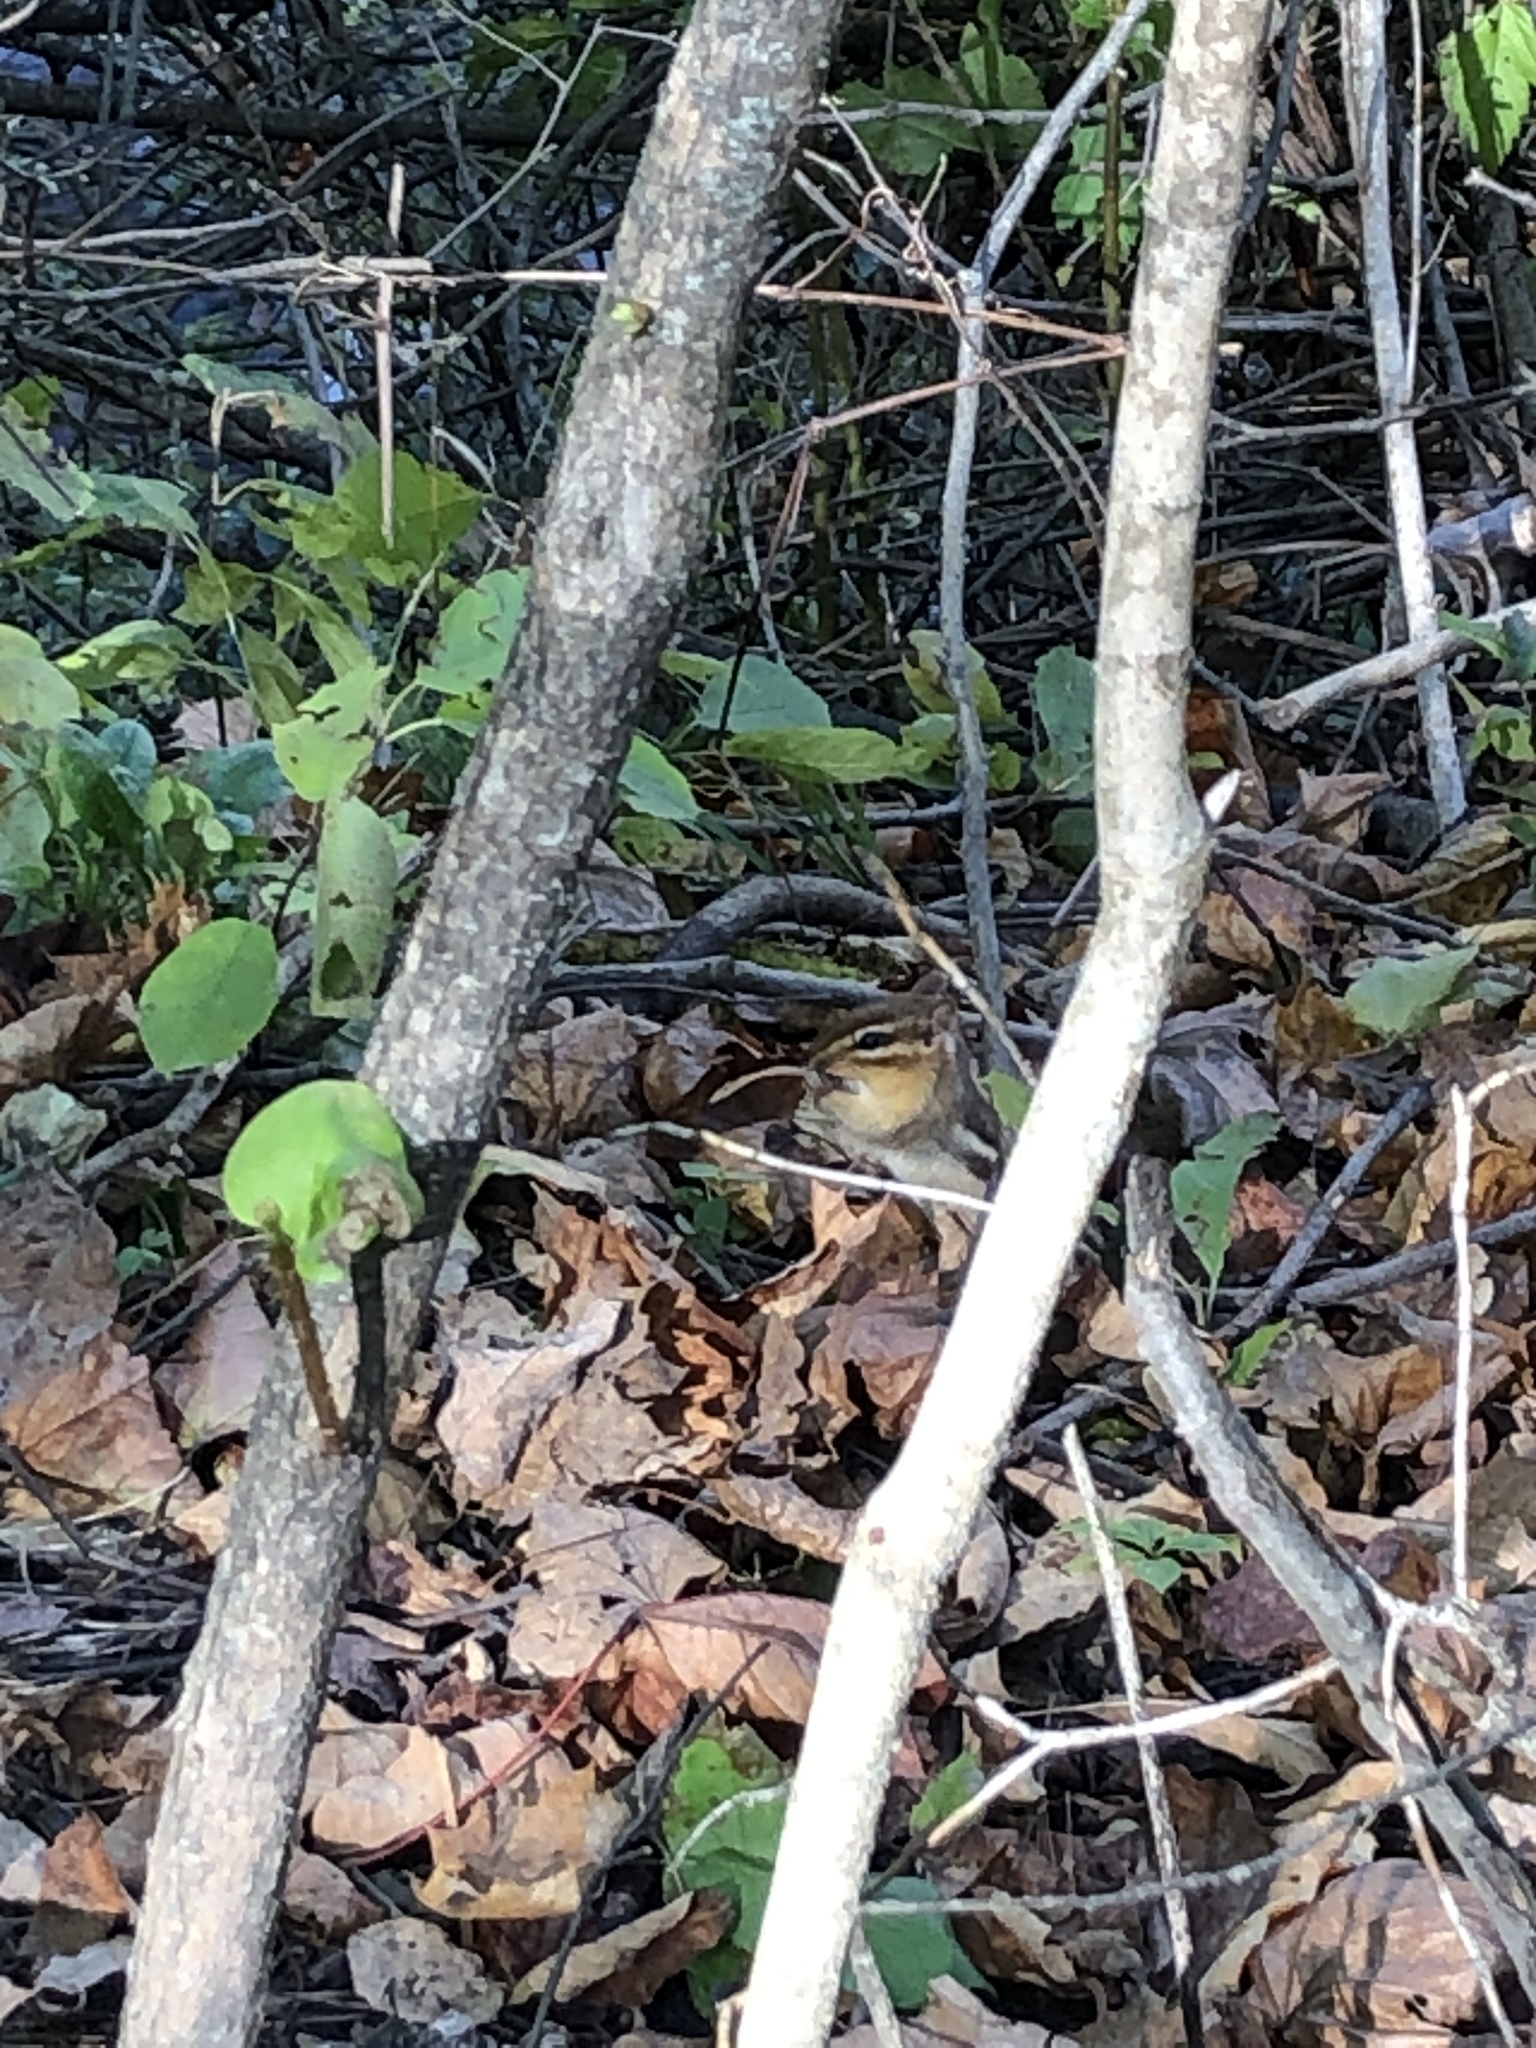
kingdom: Animalia
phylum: Chordata
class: Mammalia
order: Rodentia
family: Sciuridae
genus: Tamias
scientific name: Tamias striatus
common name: Eastern chipmunk
